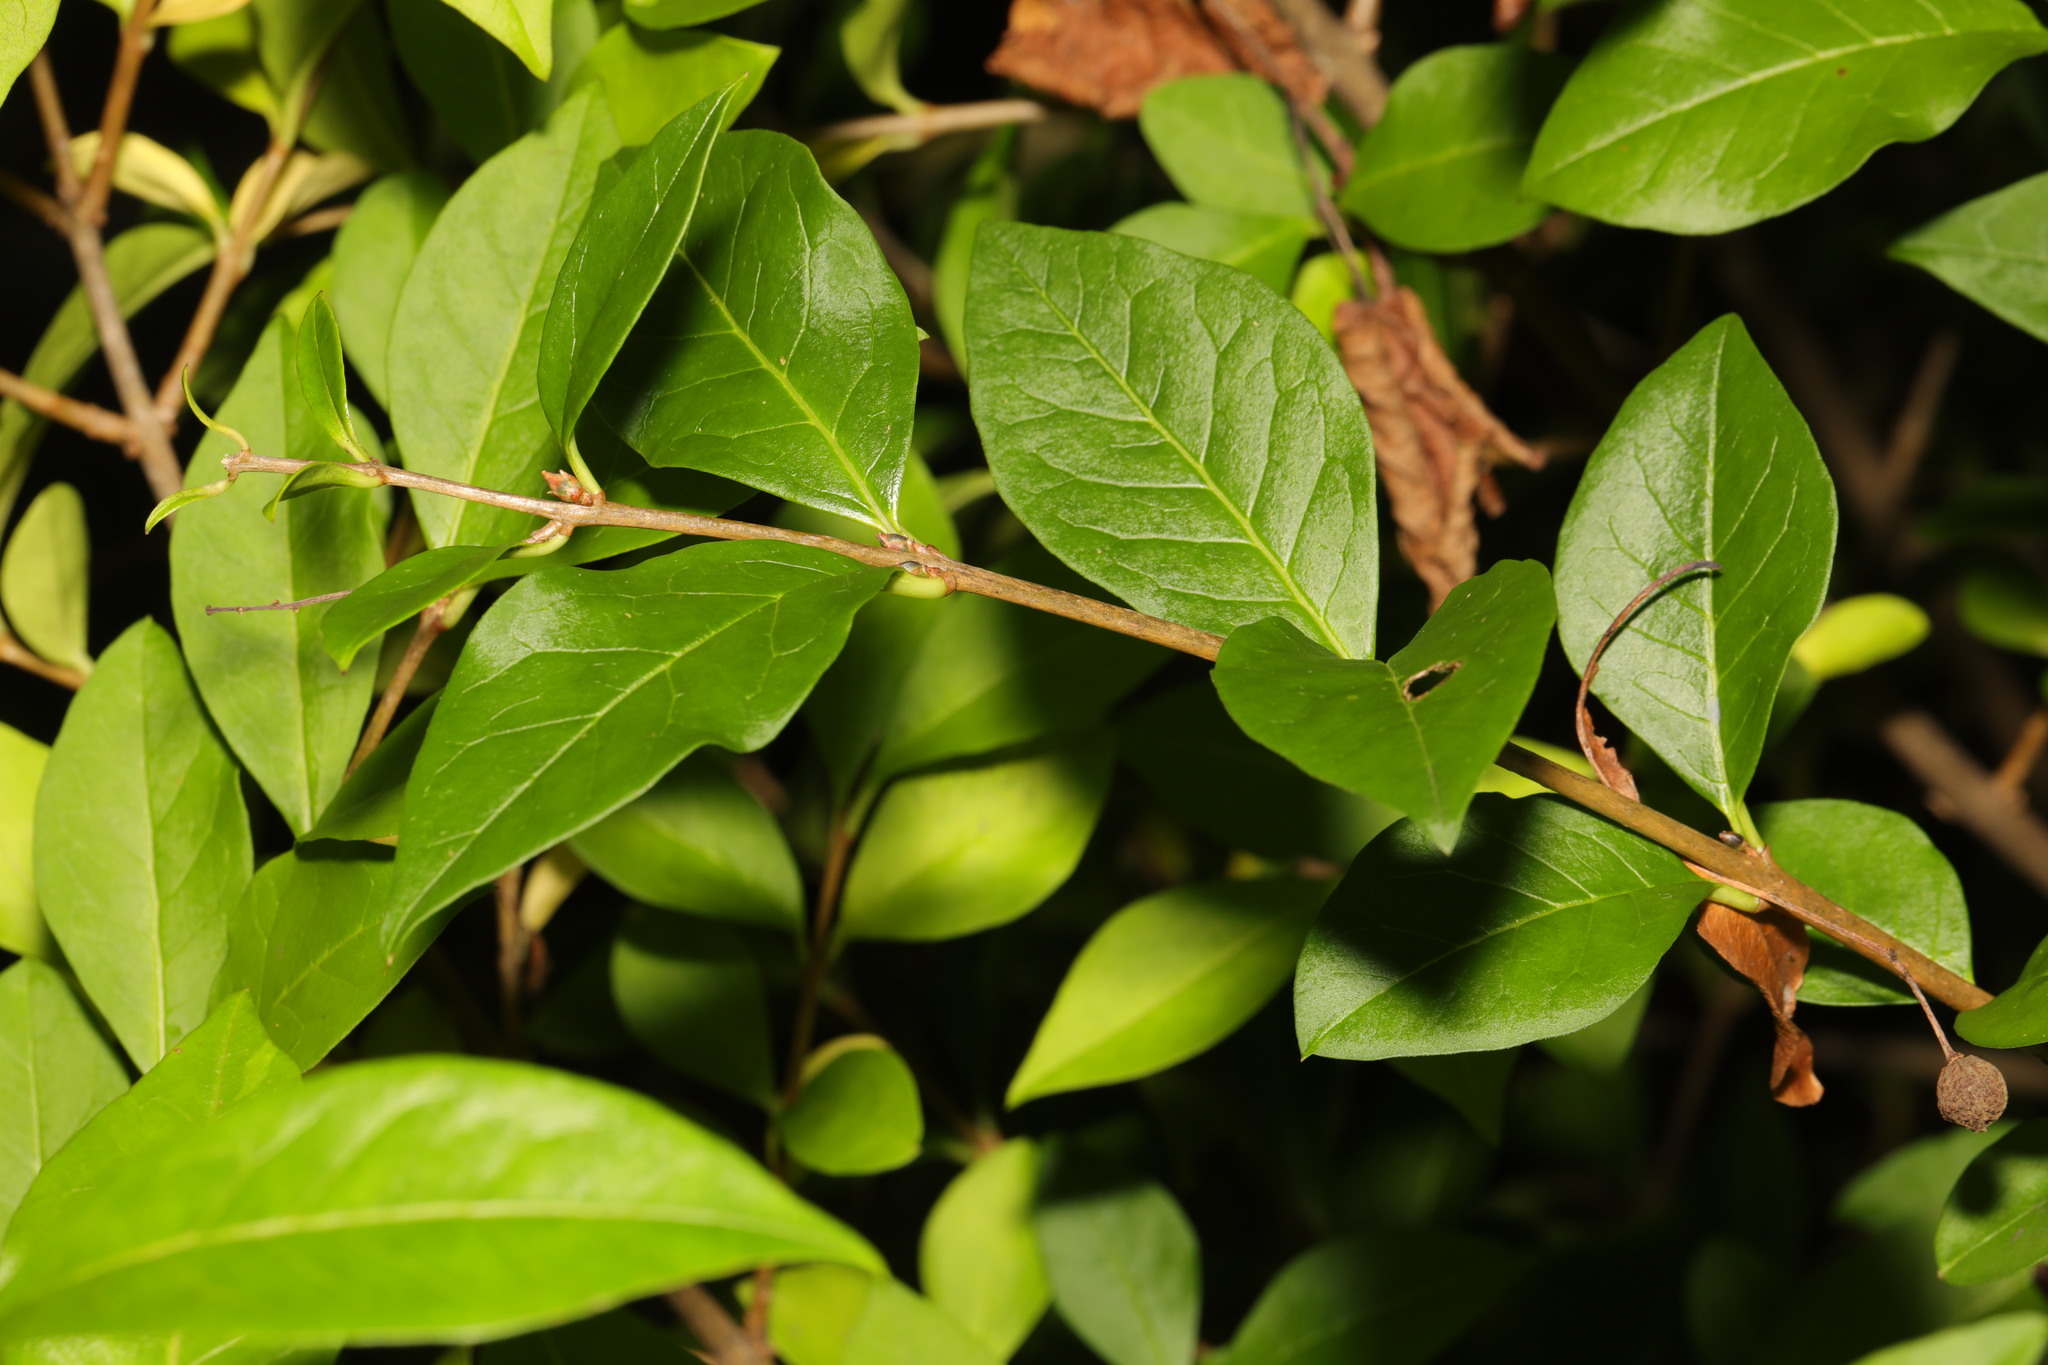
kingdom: Plantae
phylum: Tracheophyta
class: Magnoliopsida
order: Lamiales
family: Oleaceae
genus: Ligustrum
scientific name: Ligustrum ovalifolium
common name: California privet
